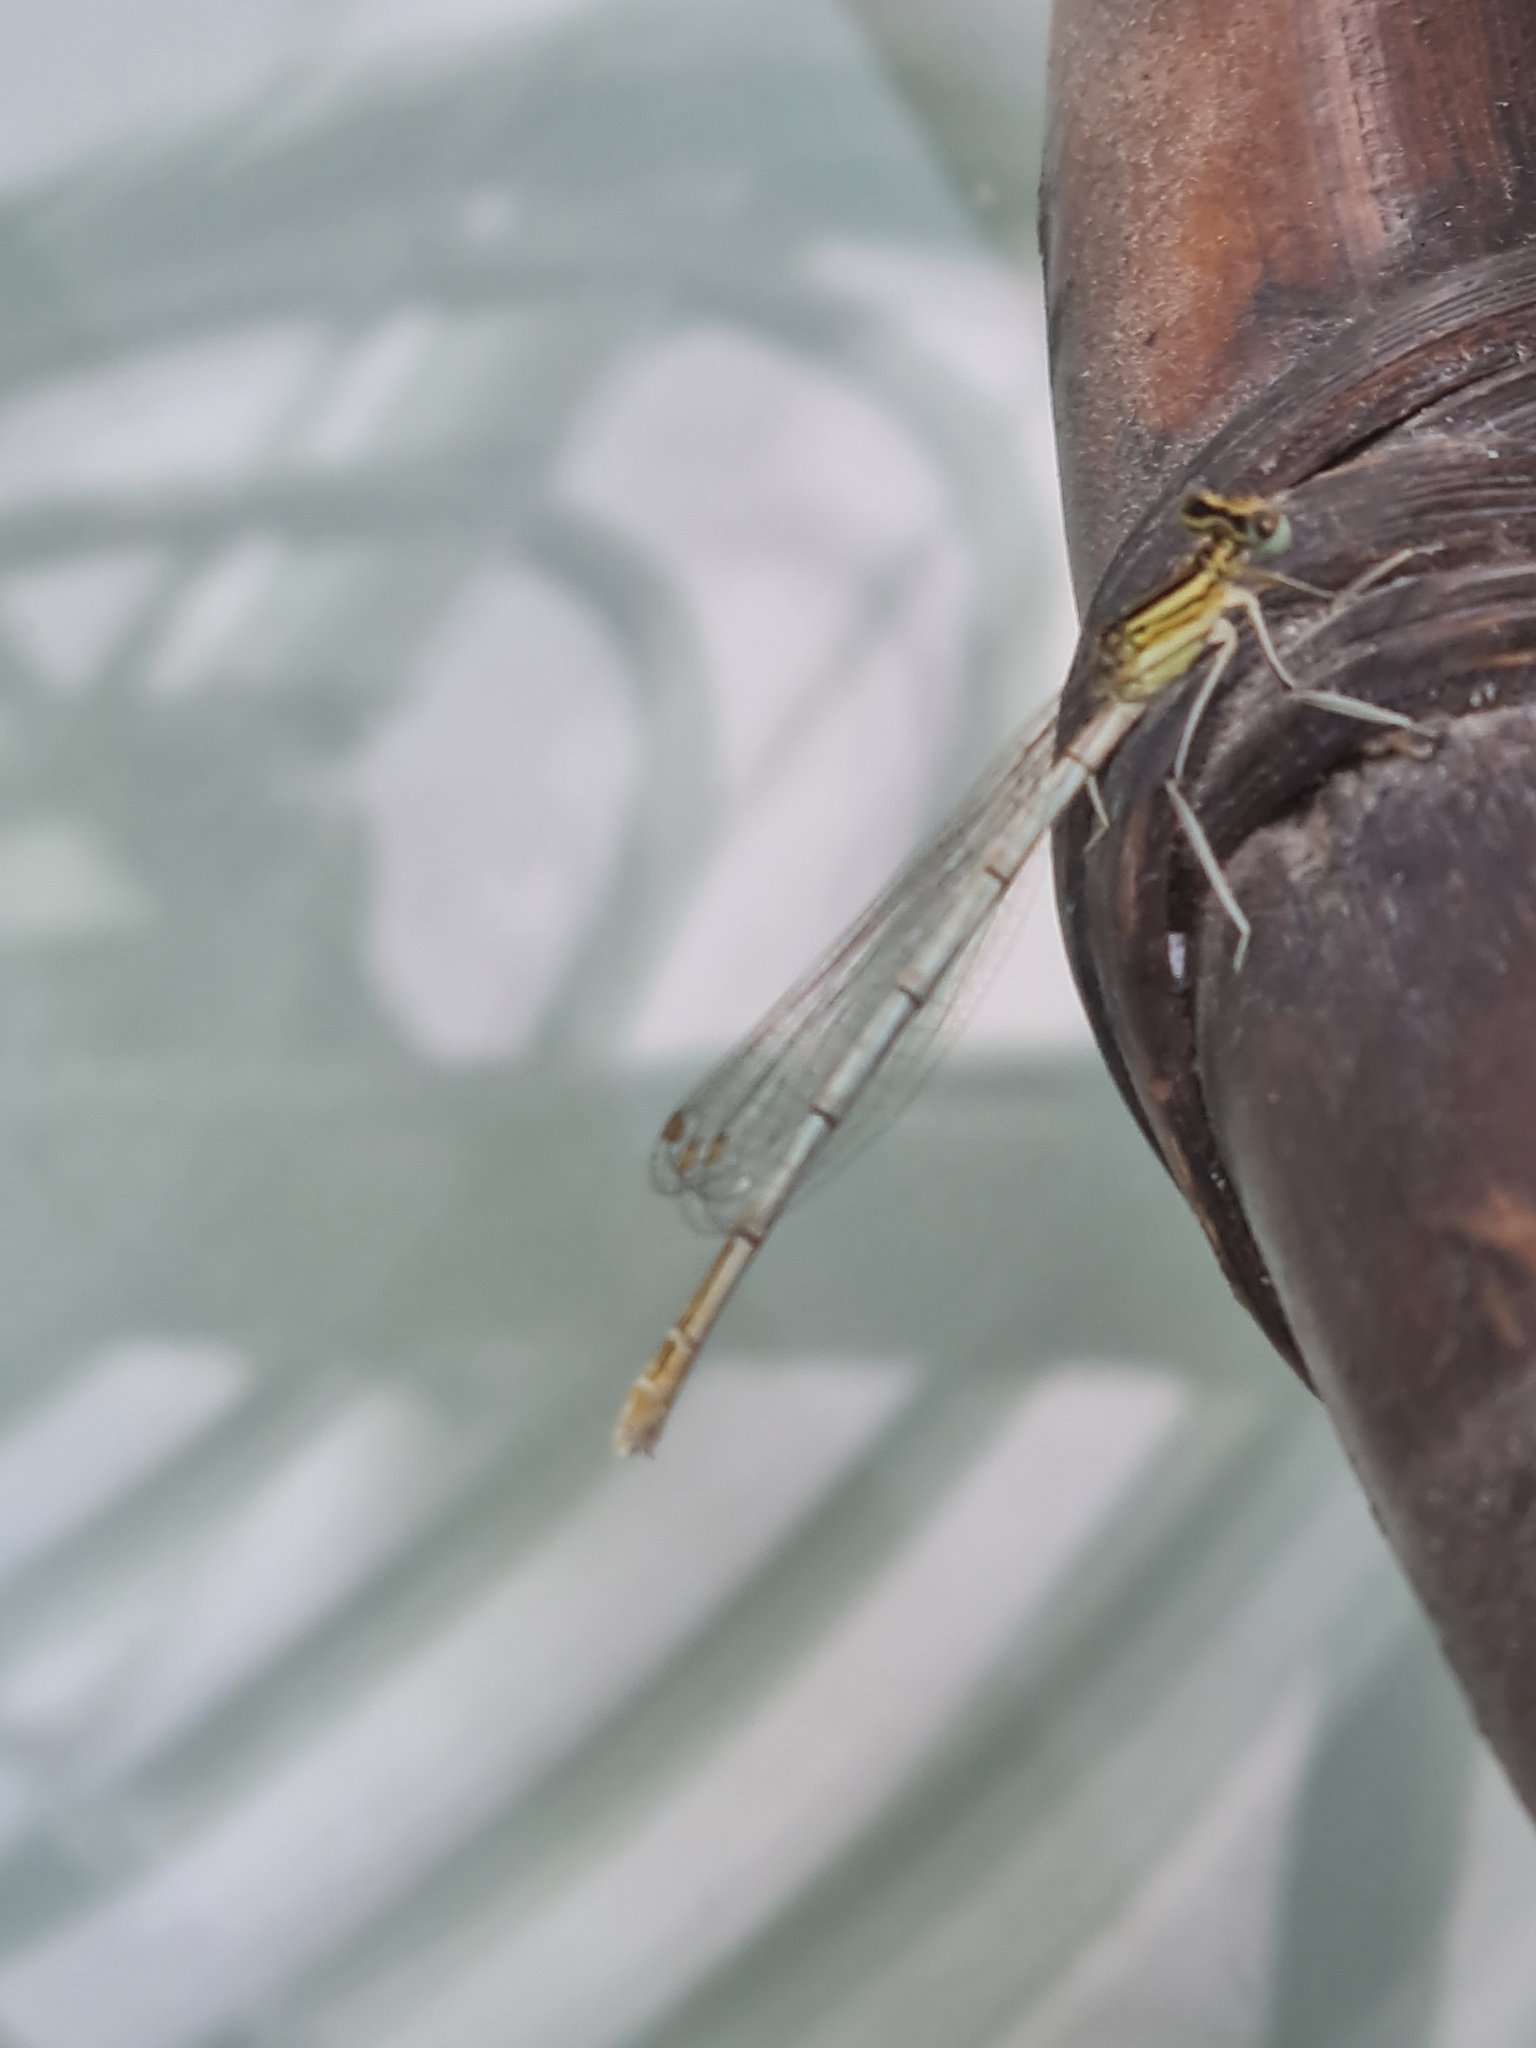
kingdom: Animalia
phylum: Arthropoda
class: Insecta
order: Odonata
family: Platycnemididae
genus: Platycnemis
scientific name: Platycnemis pennipes
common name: White-legged damselfly
